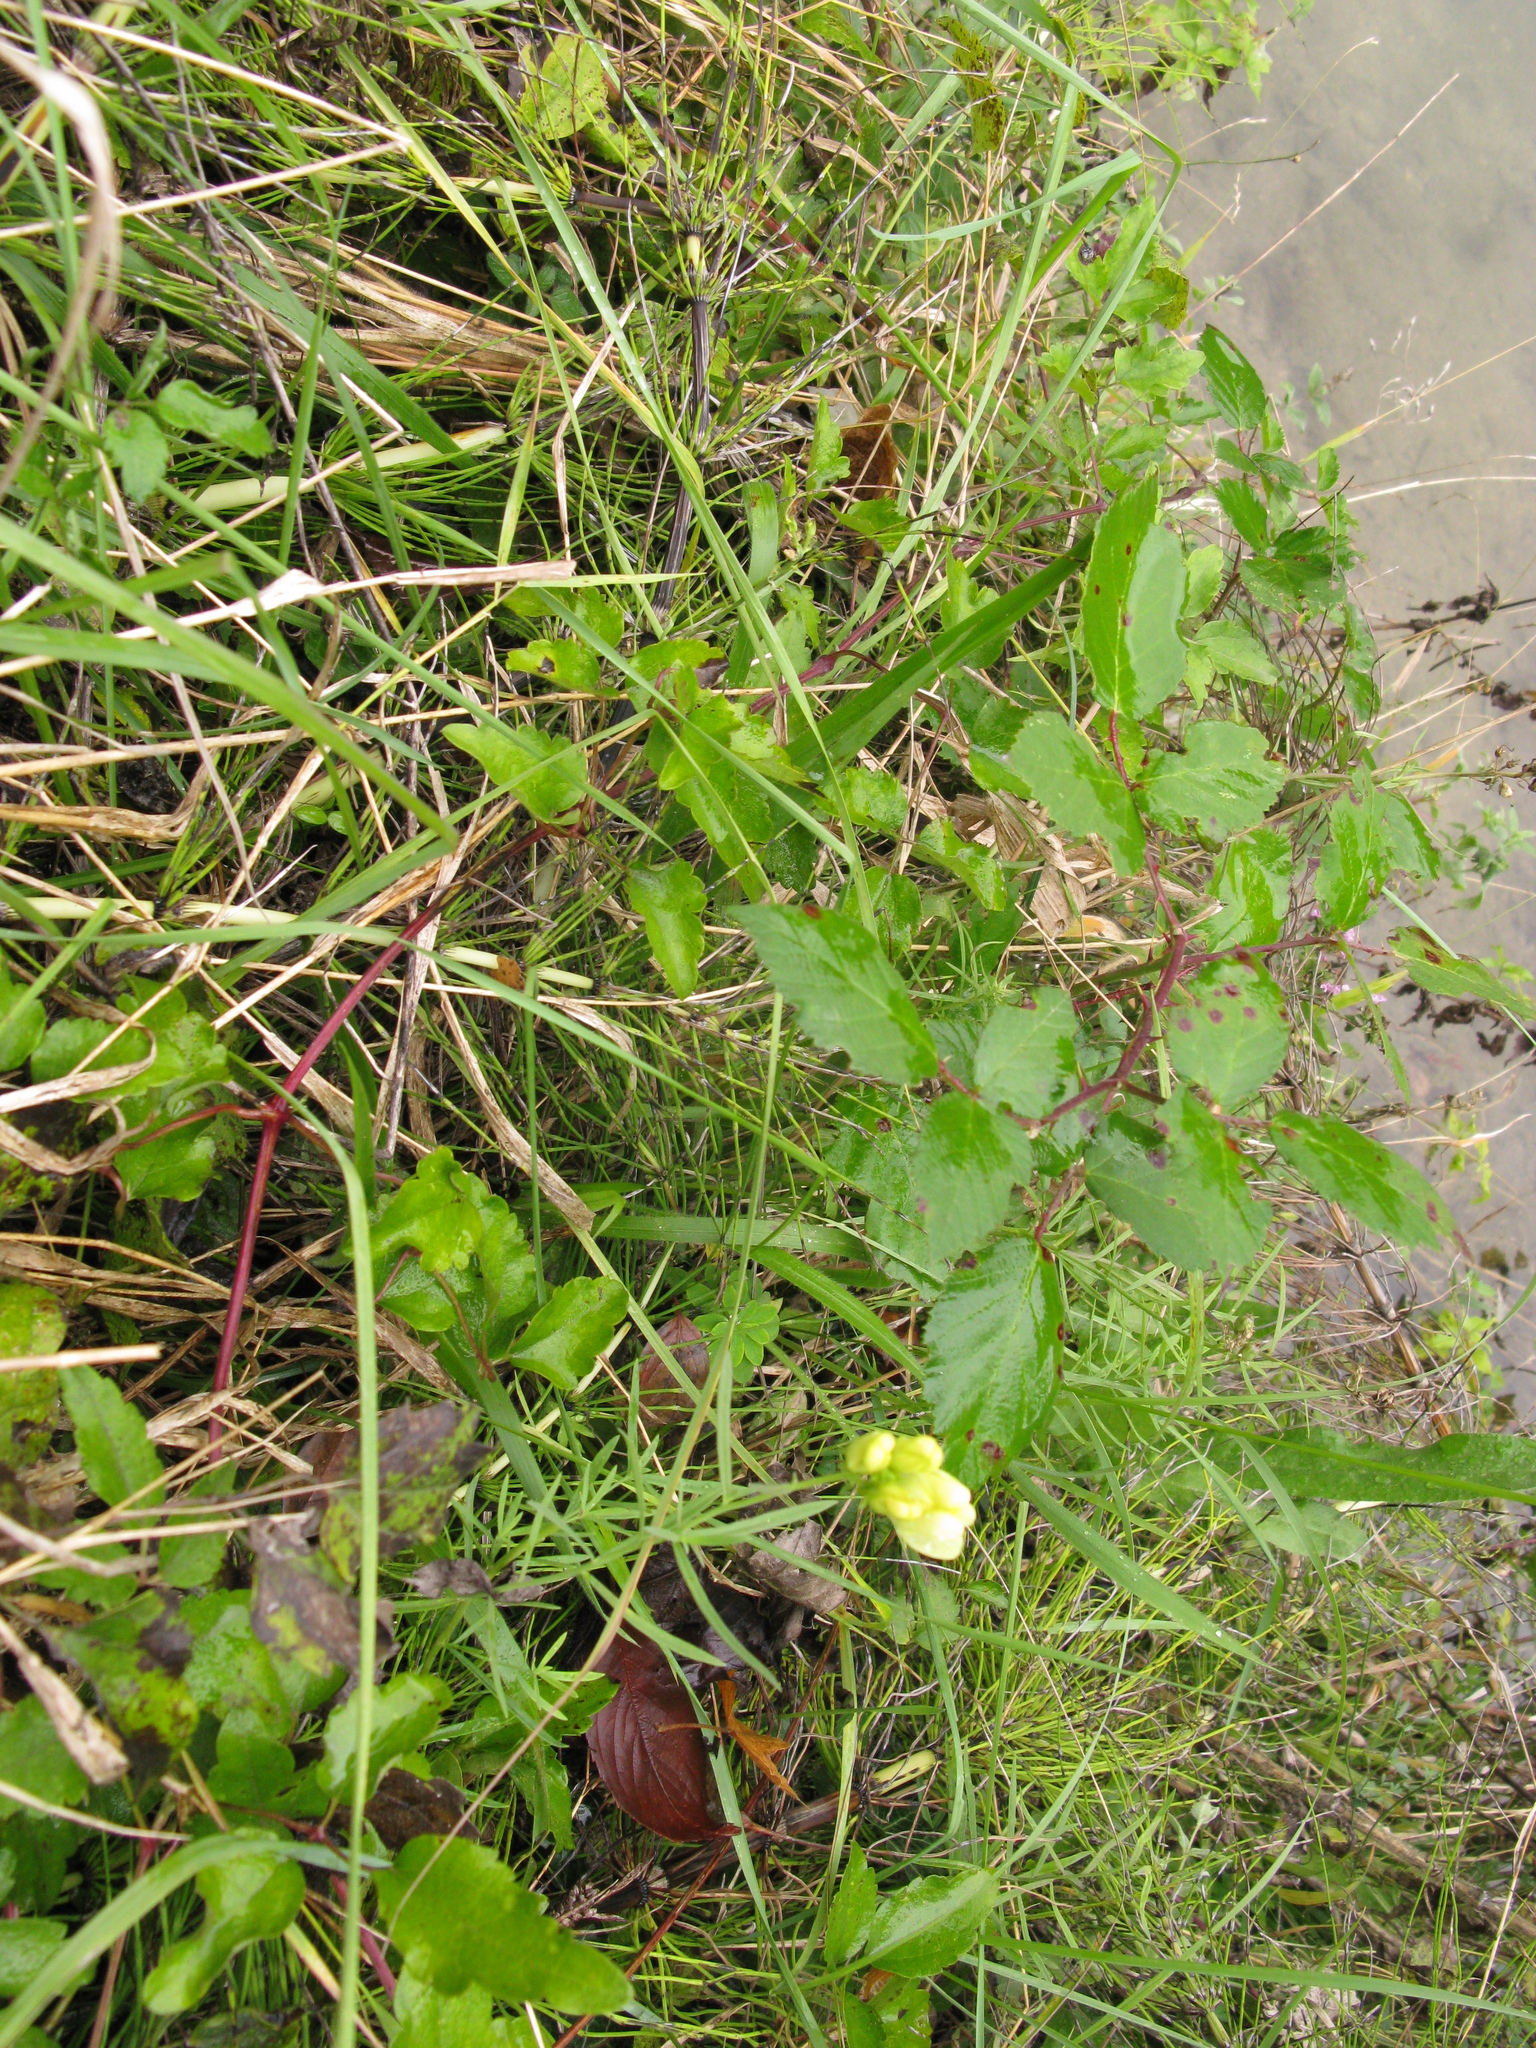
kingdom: Plantae
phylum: Tracheophyta
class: Magnoliopsida
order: Lamiales
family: Plantaginaceae
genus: Linaria
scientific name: Linaria vulgaris
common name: Butter and eggs
